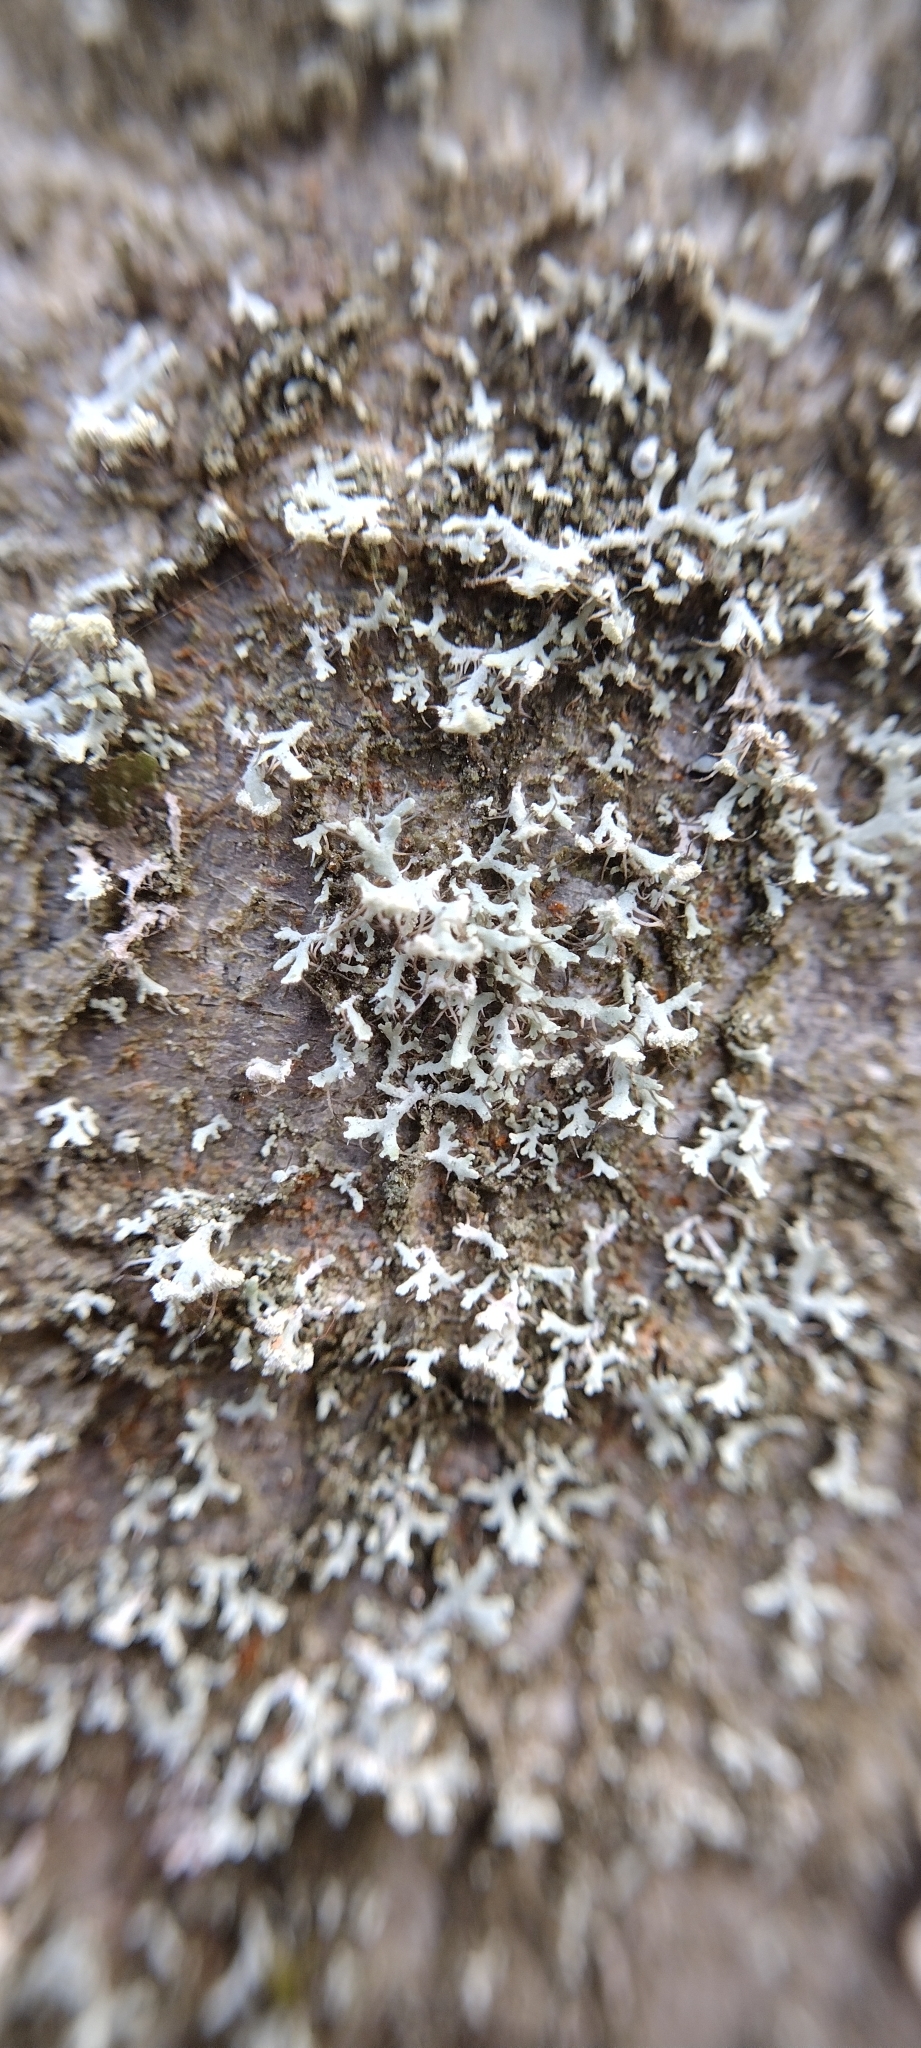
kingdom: Fungi
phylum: Ascomycota
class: Lecanoromycetes
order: Caliciales
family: Physciaceae
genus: Physcia
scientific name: Physcia tenella
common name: Fringed rosette lichen
